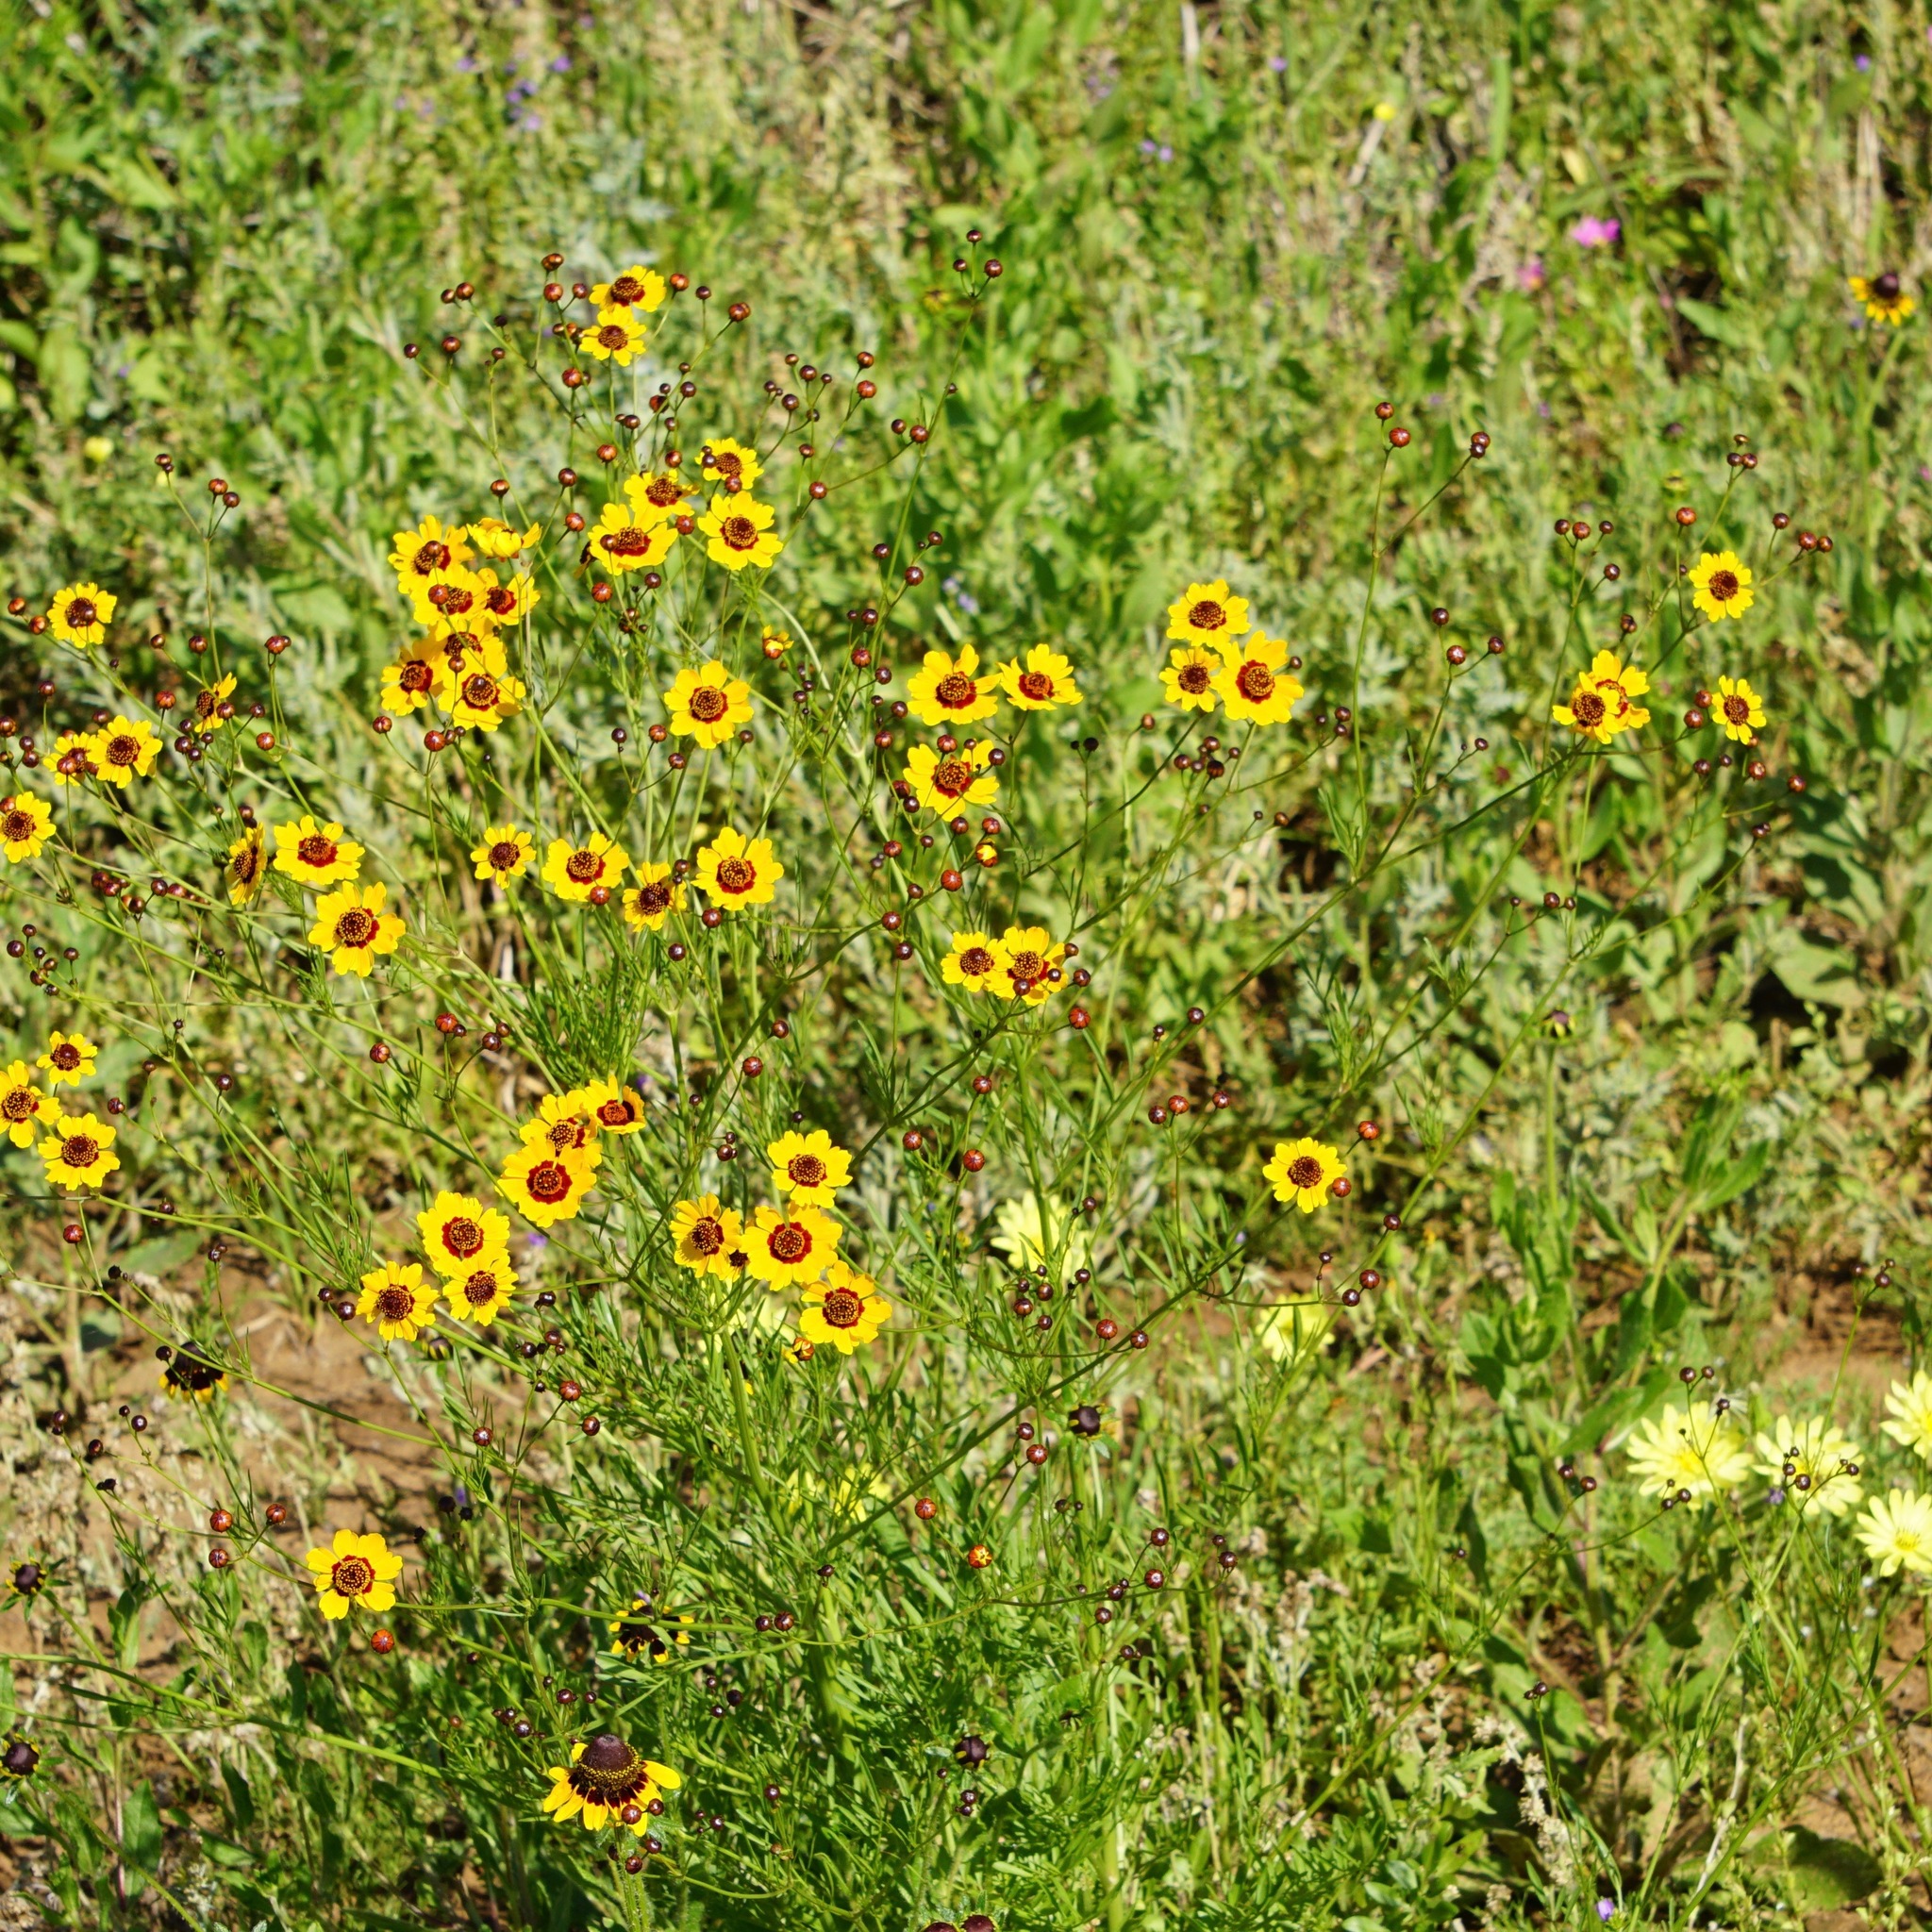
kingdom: Plantae
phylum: Tracheophyta
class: Magnoliopsida
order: Asterales
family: Asteraceae
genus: Coreopsis
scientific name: Coreopsis tinctoria
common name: Garden tickseed
